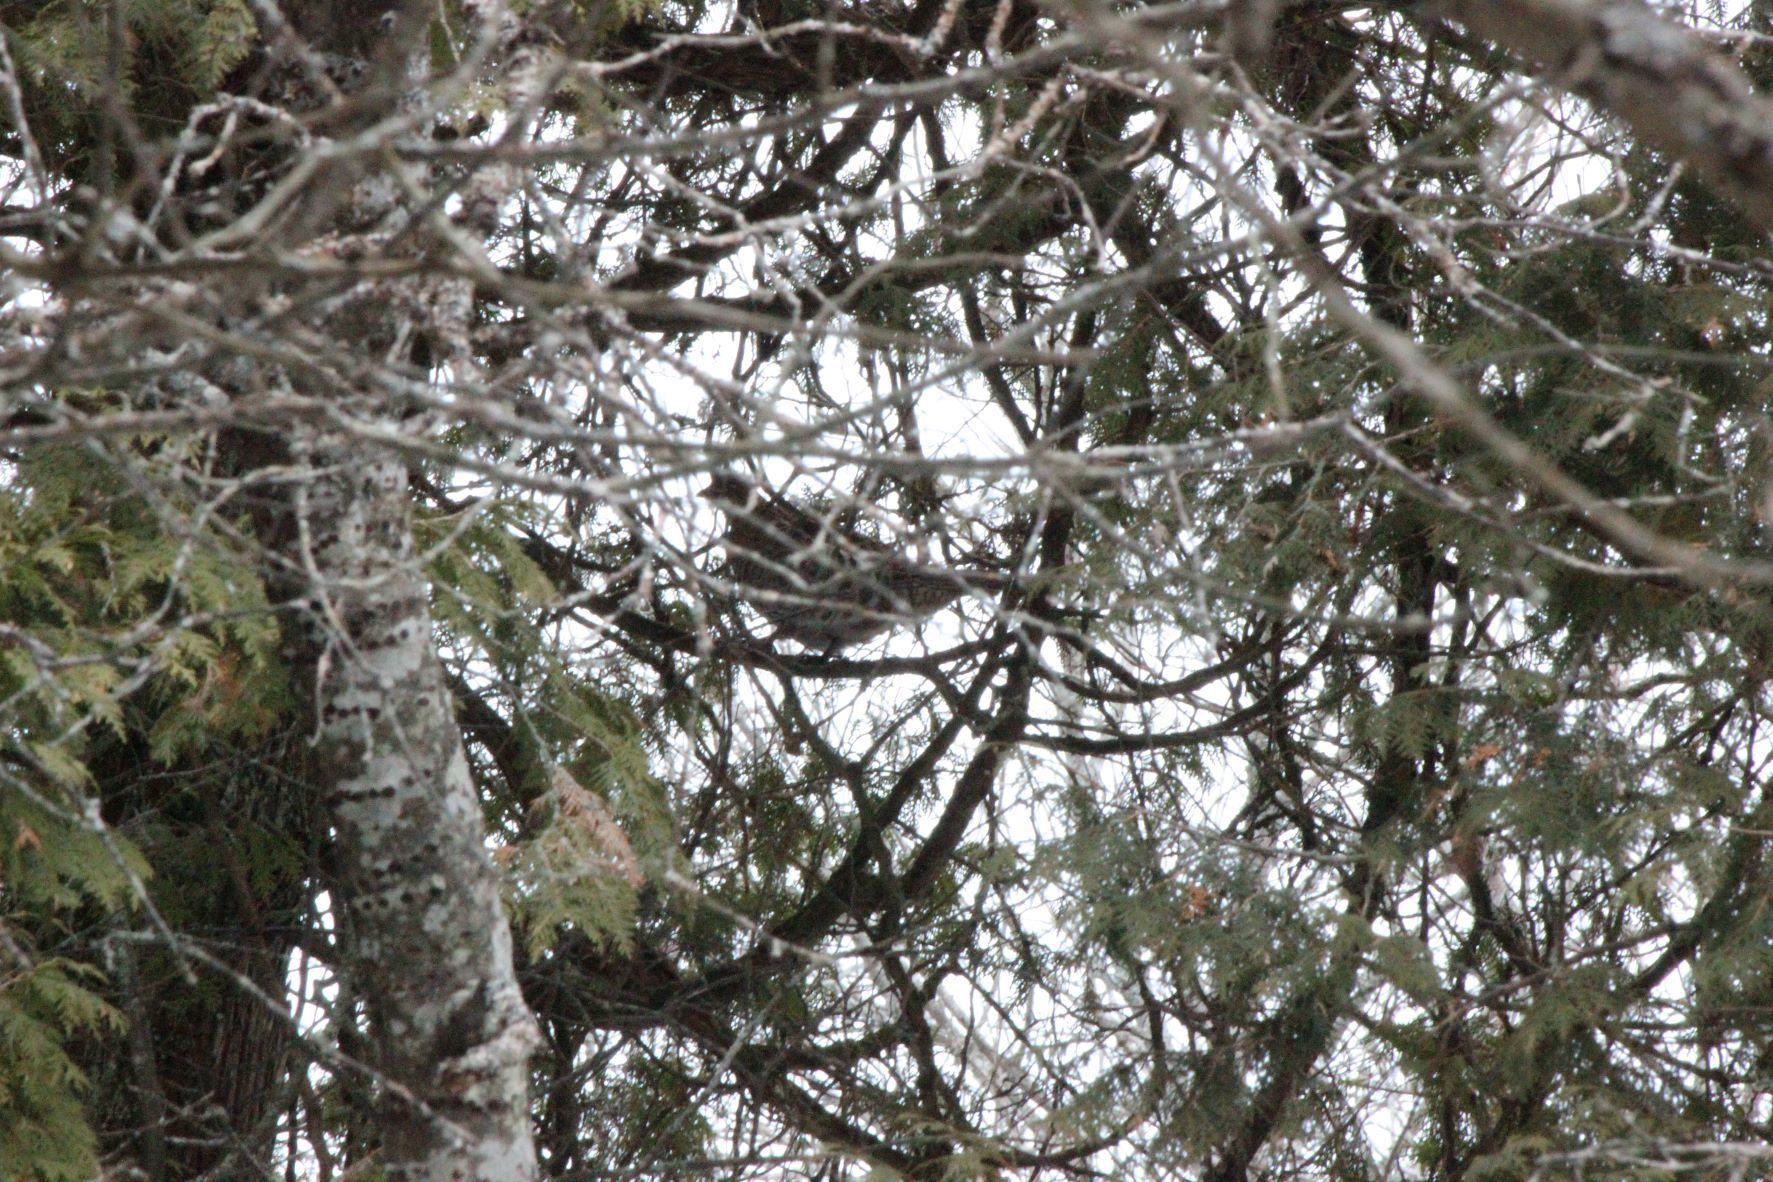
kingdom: Animalia
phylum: Chordata
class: Aves
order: Galliformes
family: Phasianidae
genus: Bonasa
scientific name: Bonasa umbellus
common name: Ruffed grouse
